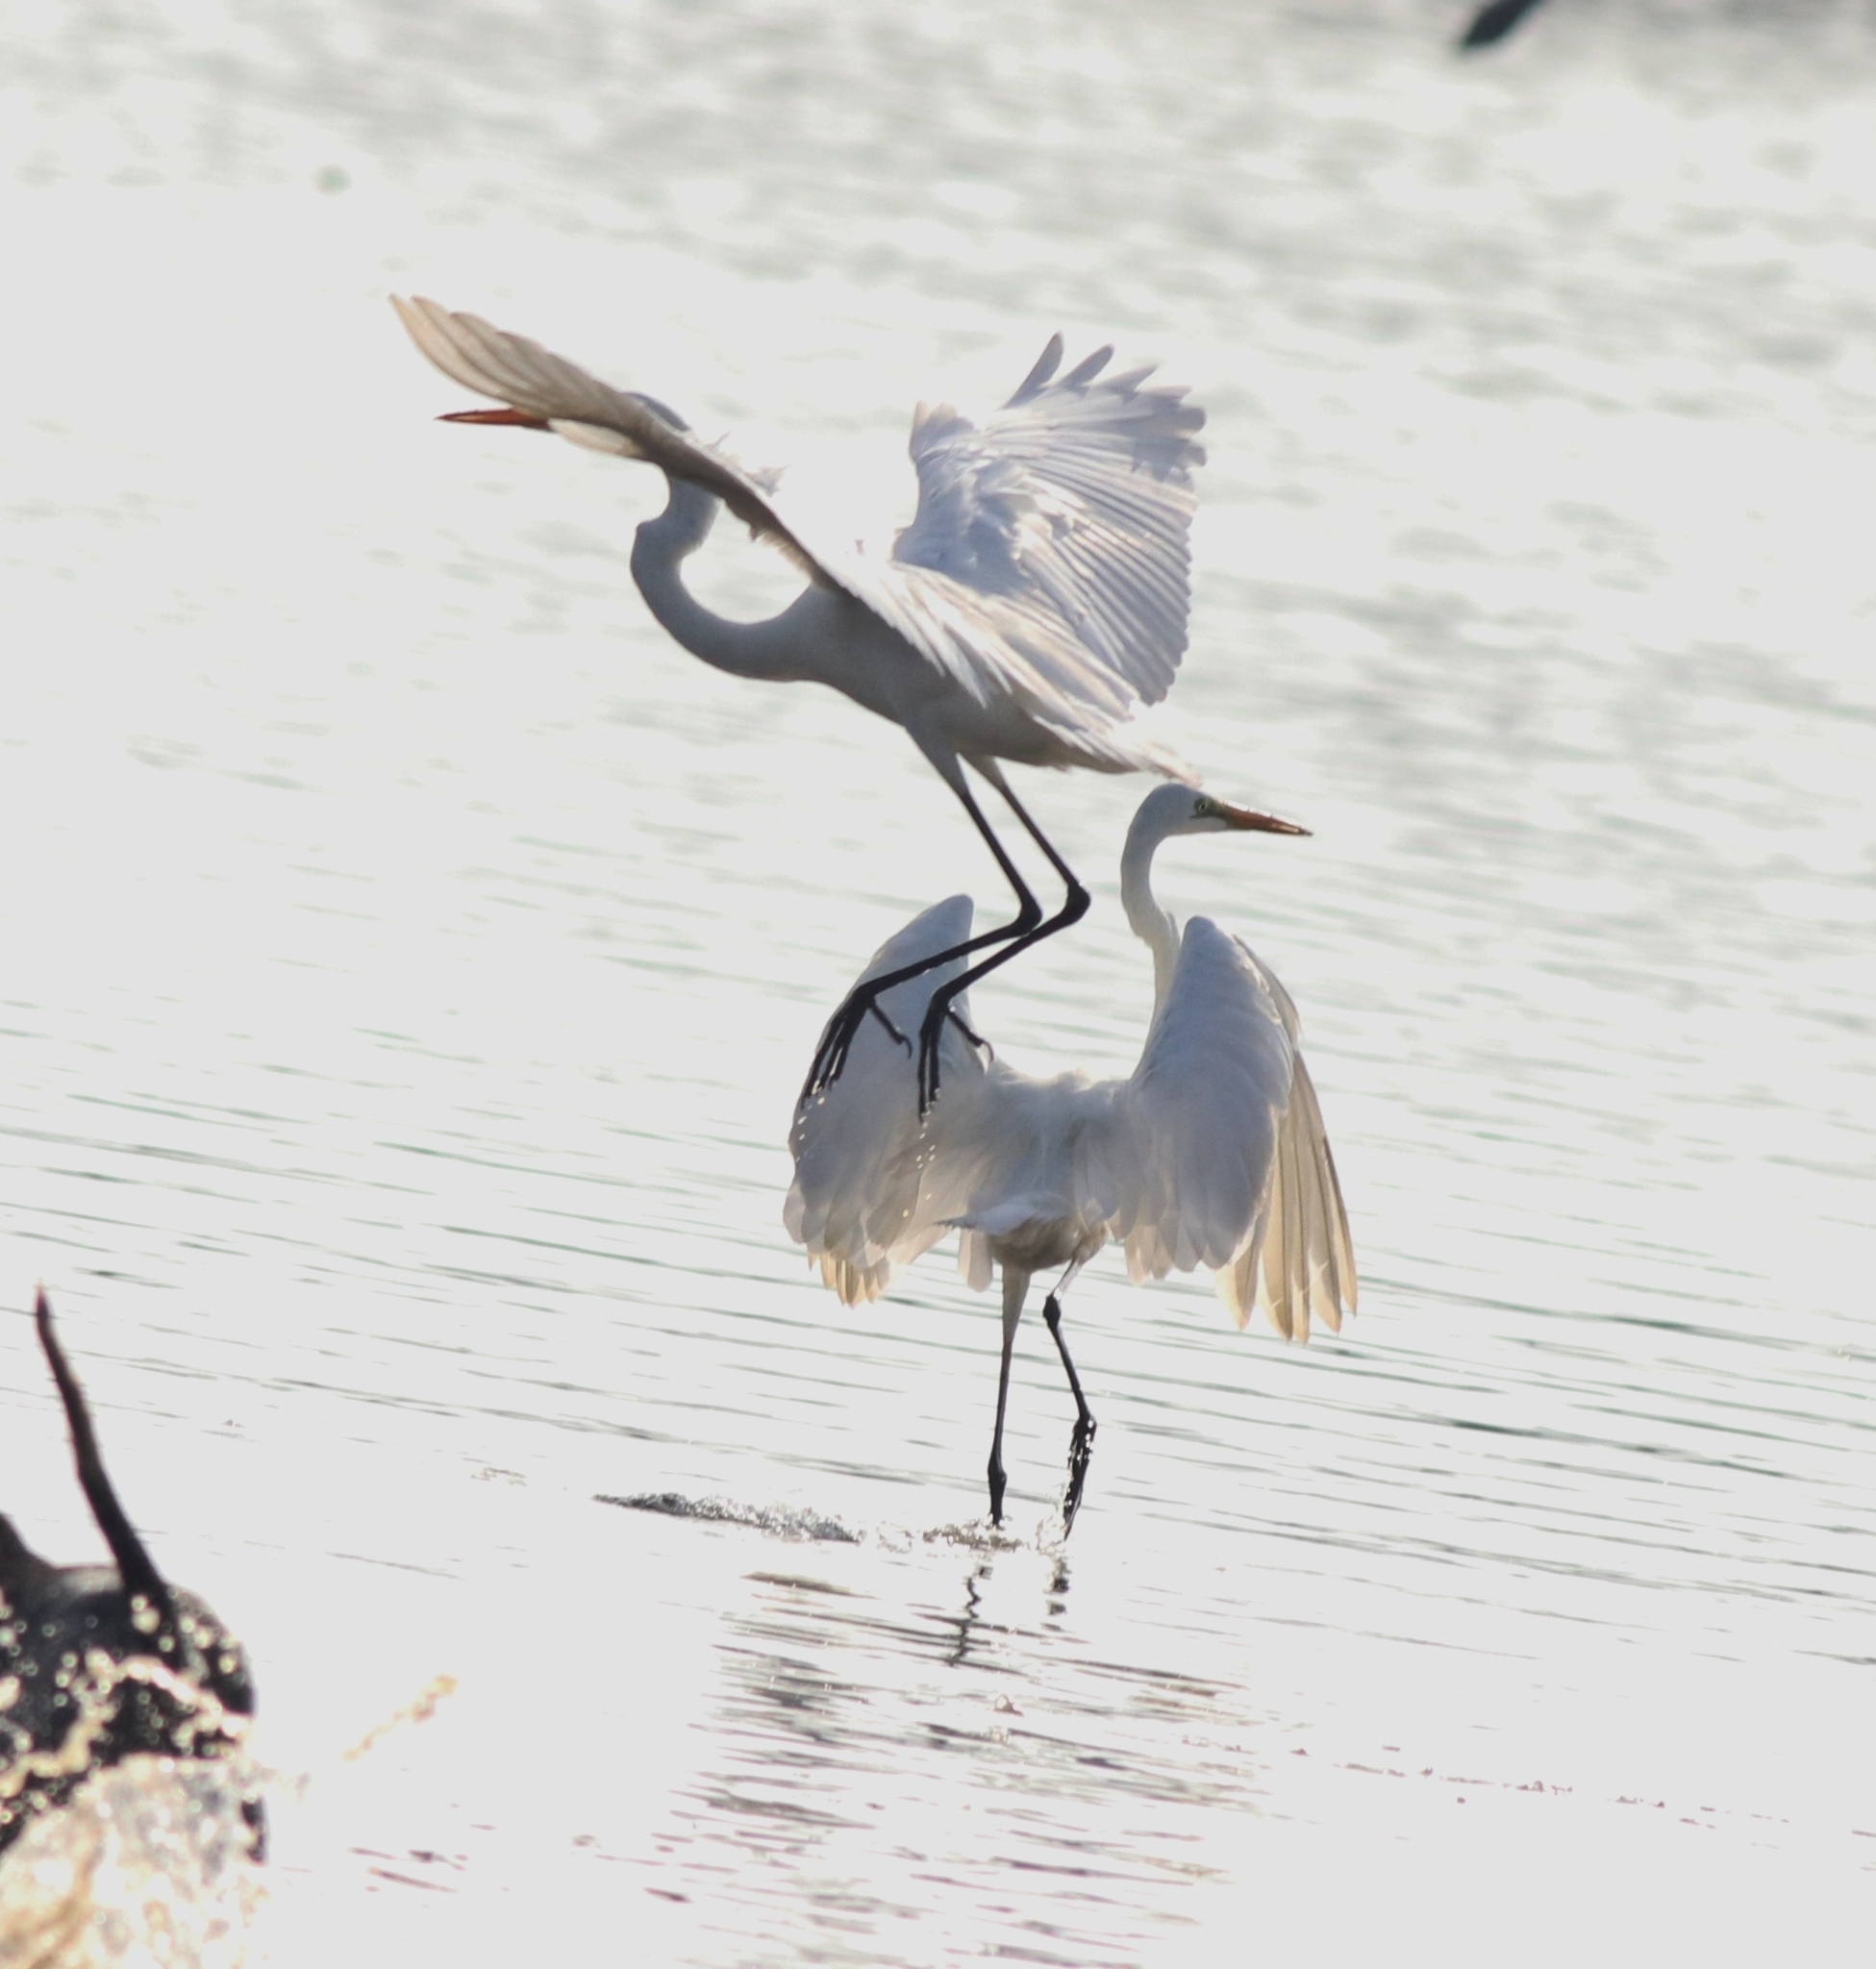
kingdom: Animalia
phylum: Chordata
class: Aves
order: Pelecaniformes
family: Ardeidae
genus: Ardea
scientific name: Ardea alba
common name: Great egret
